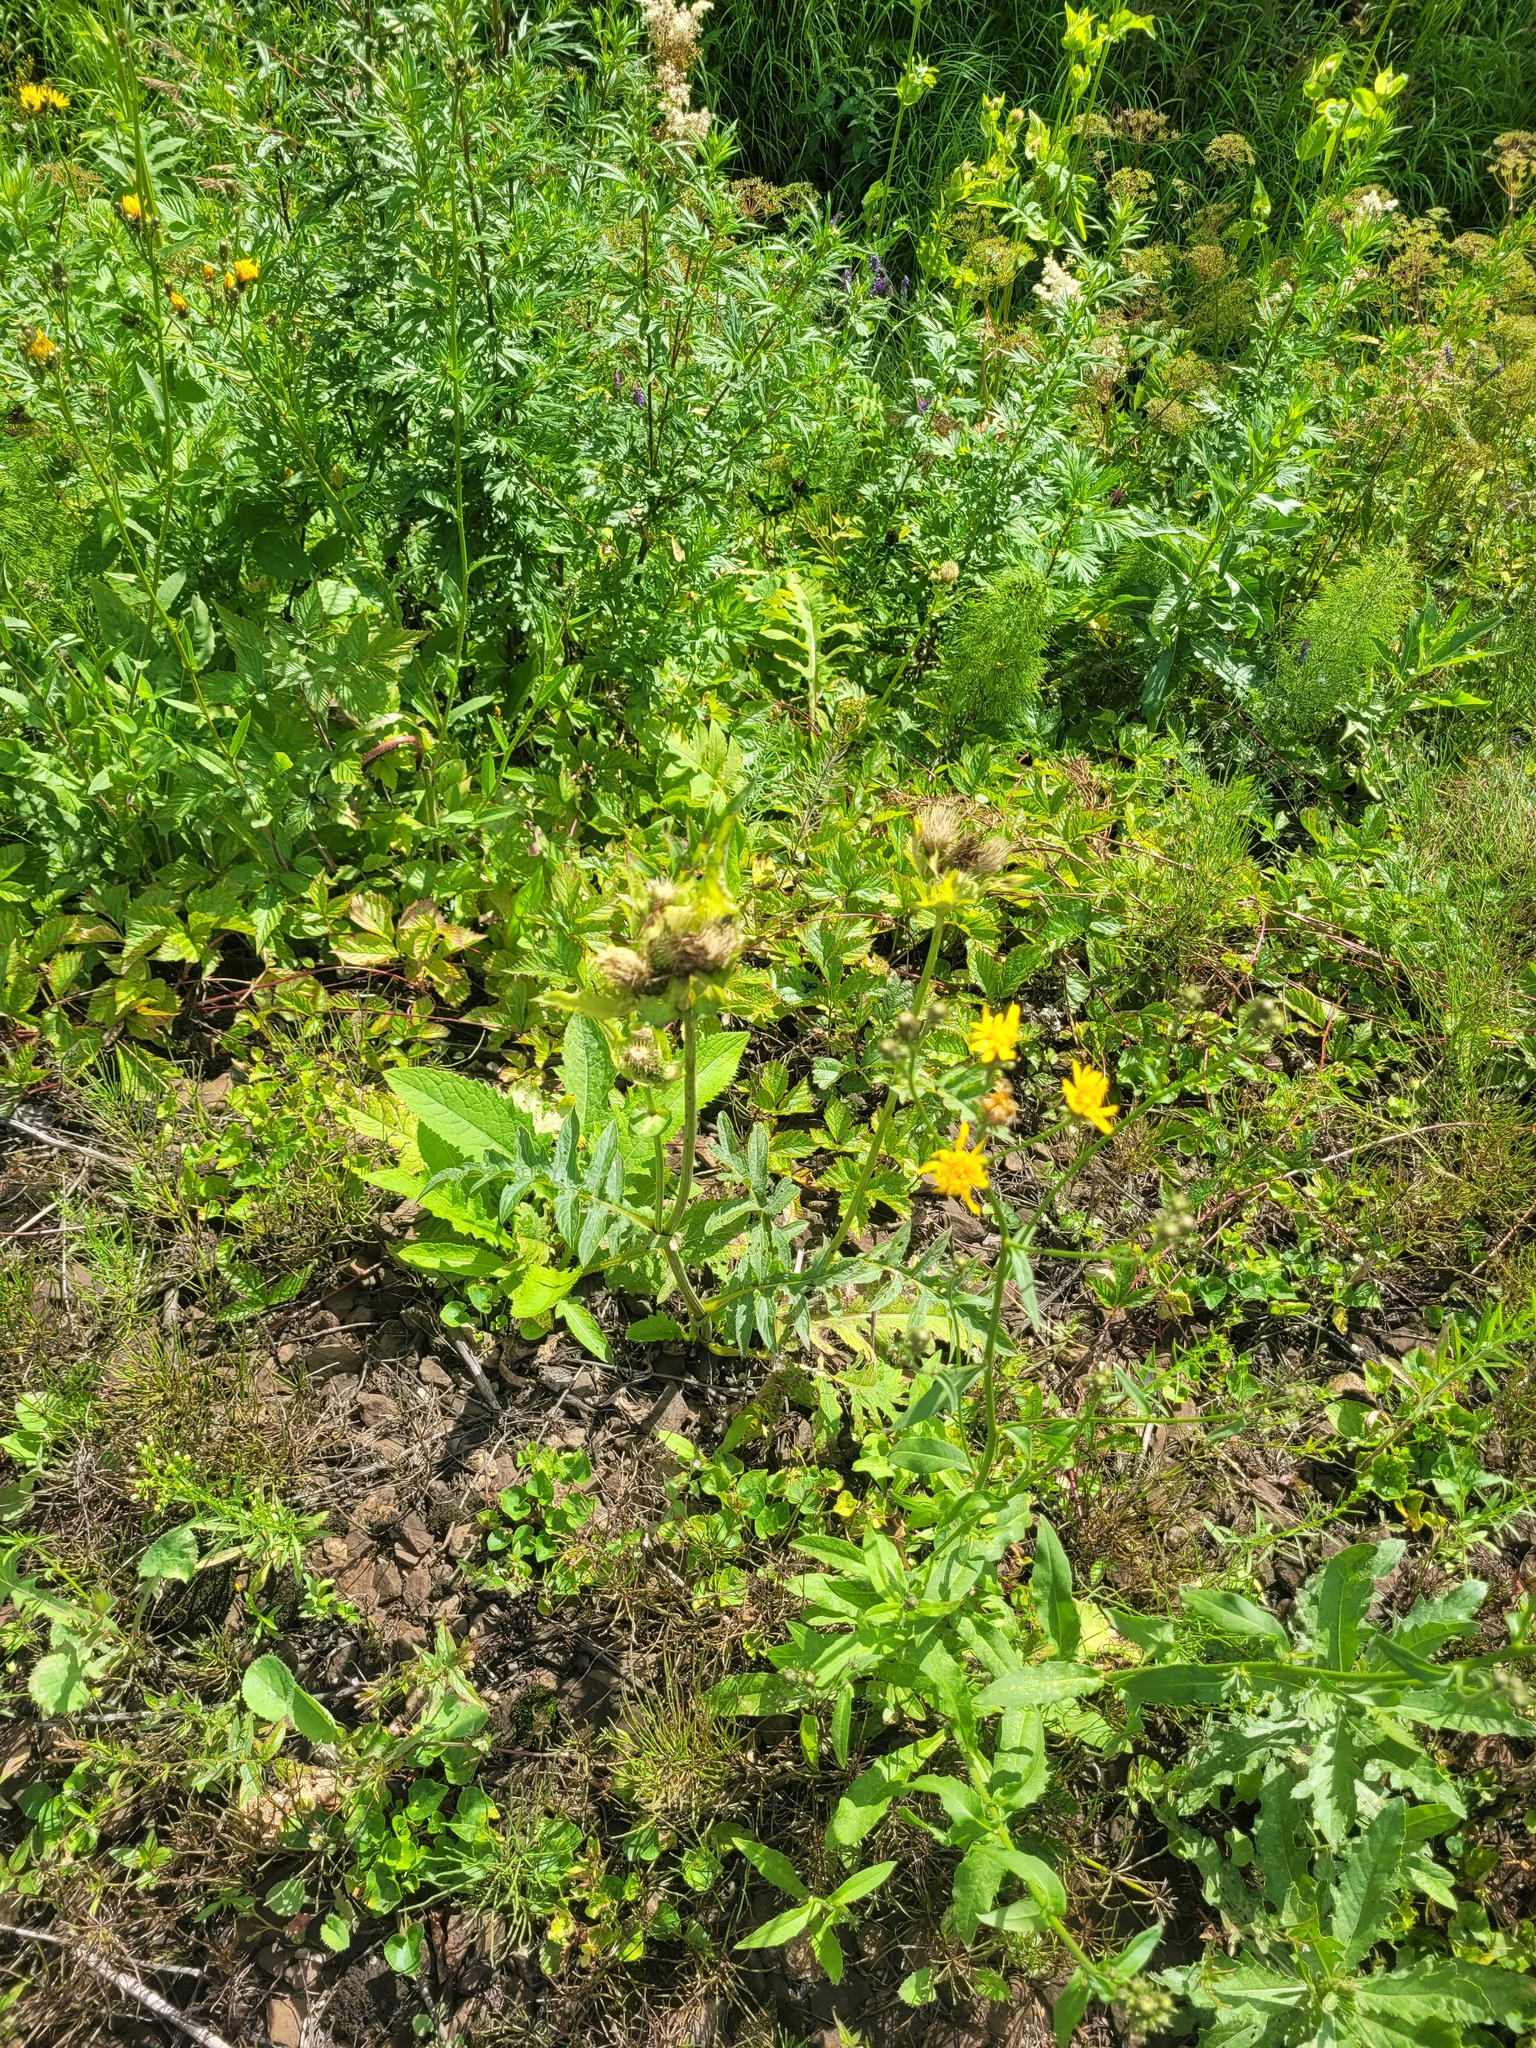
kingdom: Plantae
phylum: Tracheophyta
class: Magnoliopsida
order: Asterales
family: Asteraceae
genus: Cirsium
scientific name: Cirsium oleraceum
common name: Cabbage thistle
